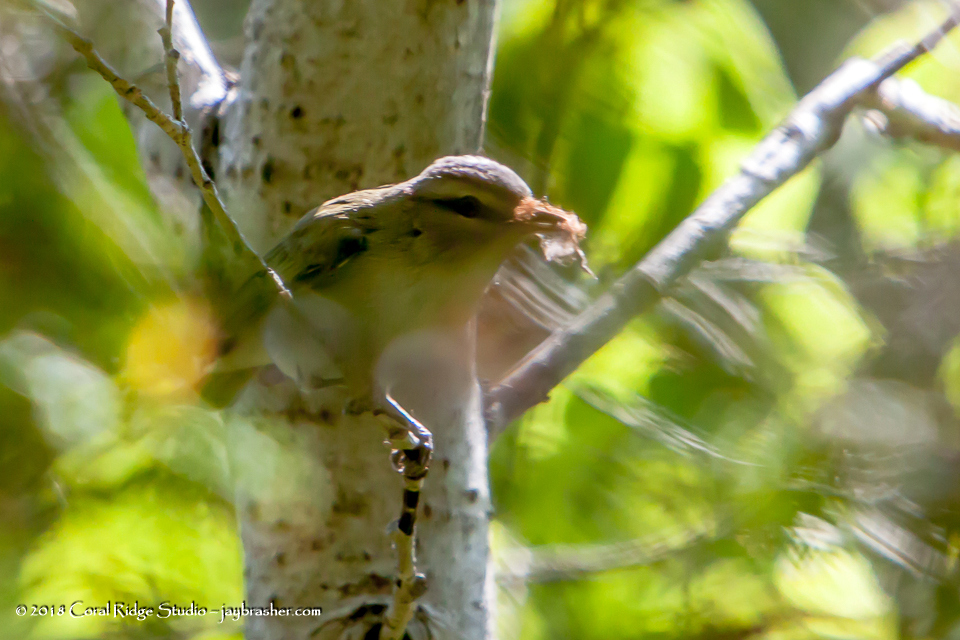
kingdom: Animalia
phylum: Chordata
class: Aves
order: Passeriformes
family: Vireonidae
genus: Vireo
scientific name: Vireo olivaceus
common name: Red-eyed vireo
